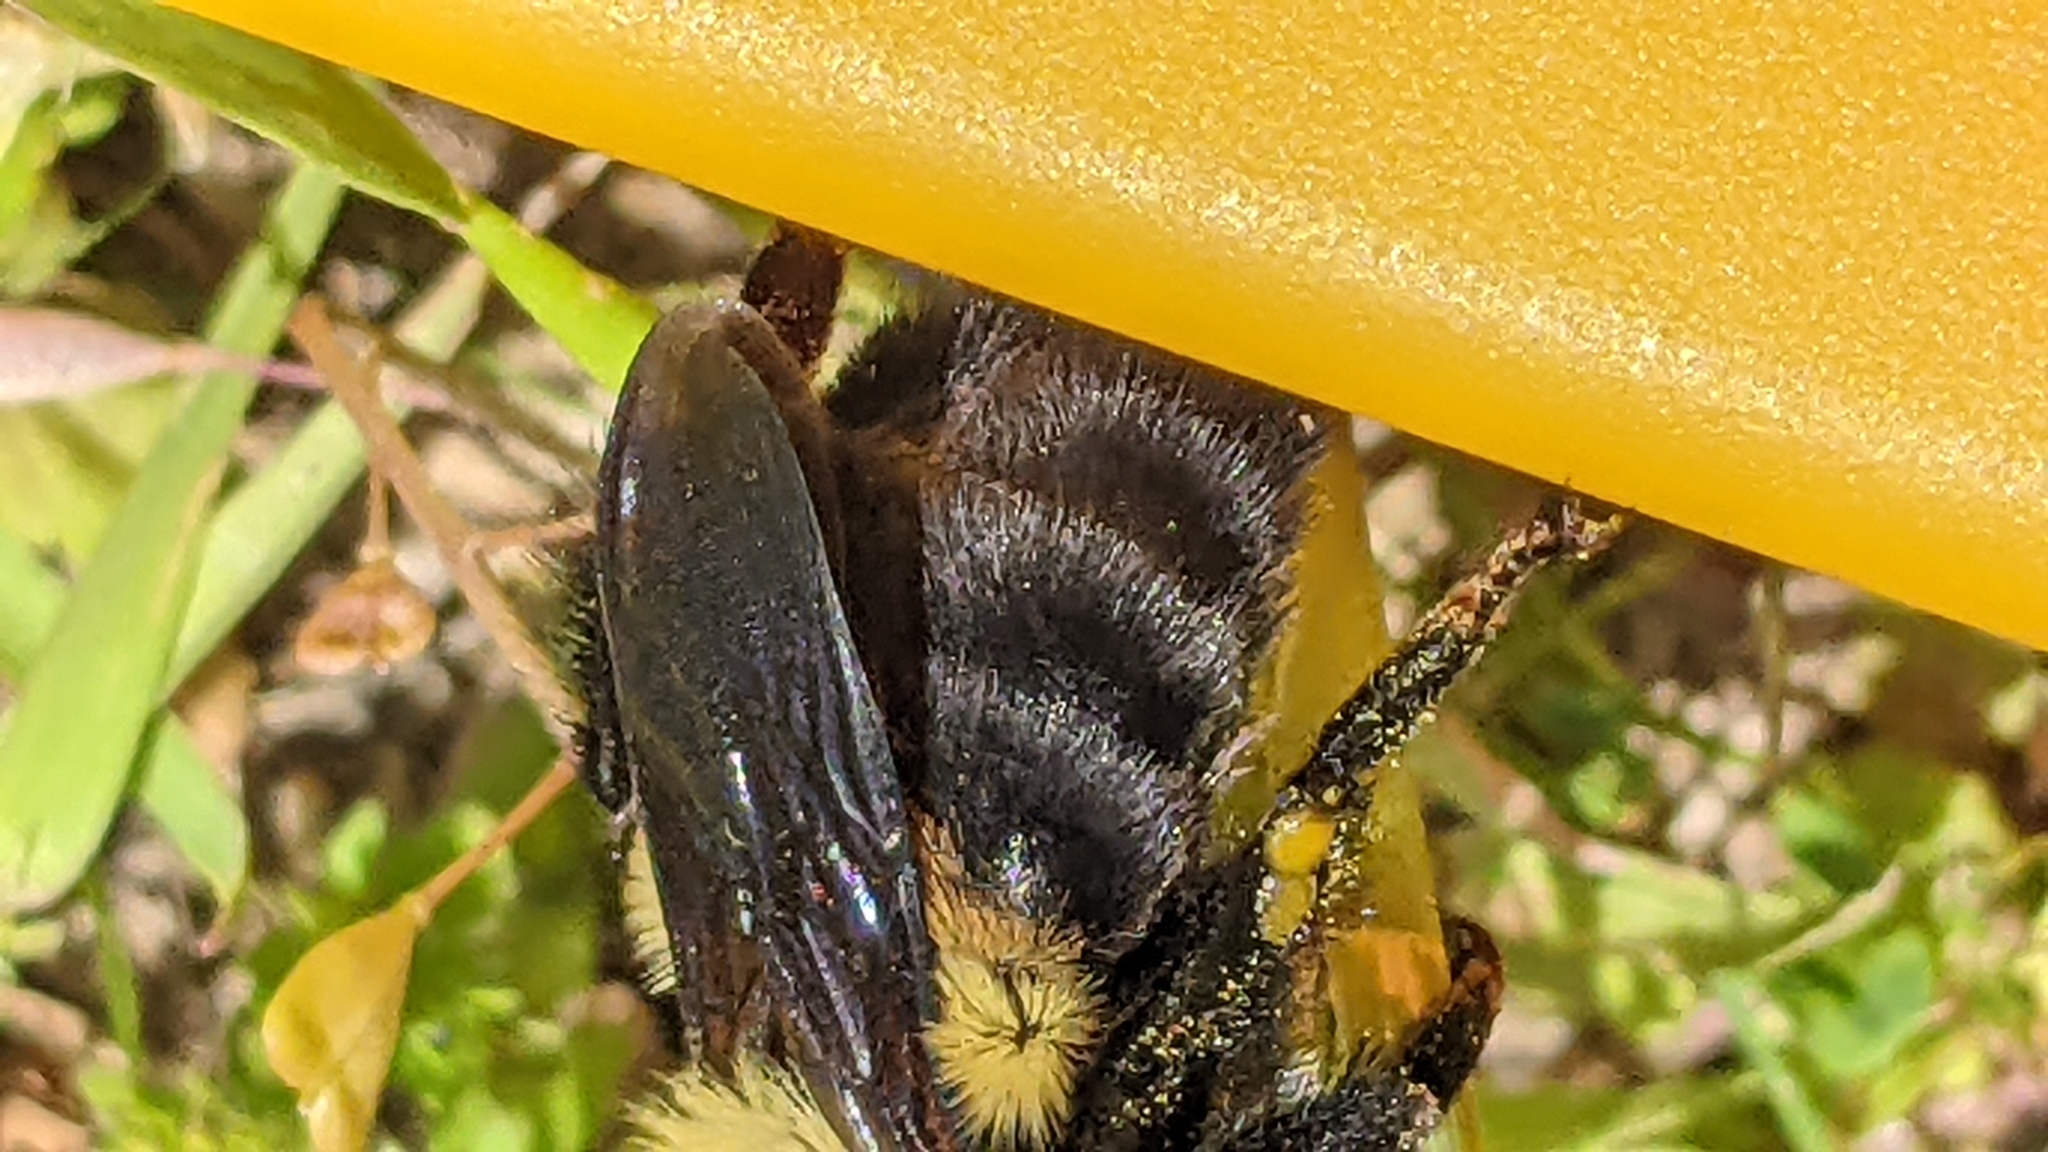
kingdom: Animalia
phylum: Arthropoda
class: Insecta
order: Hymenoptera
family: Apidae
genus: Bombus
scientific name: Bombus griseocollis
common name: Brown-belted bumble bee
